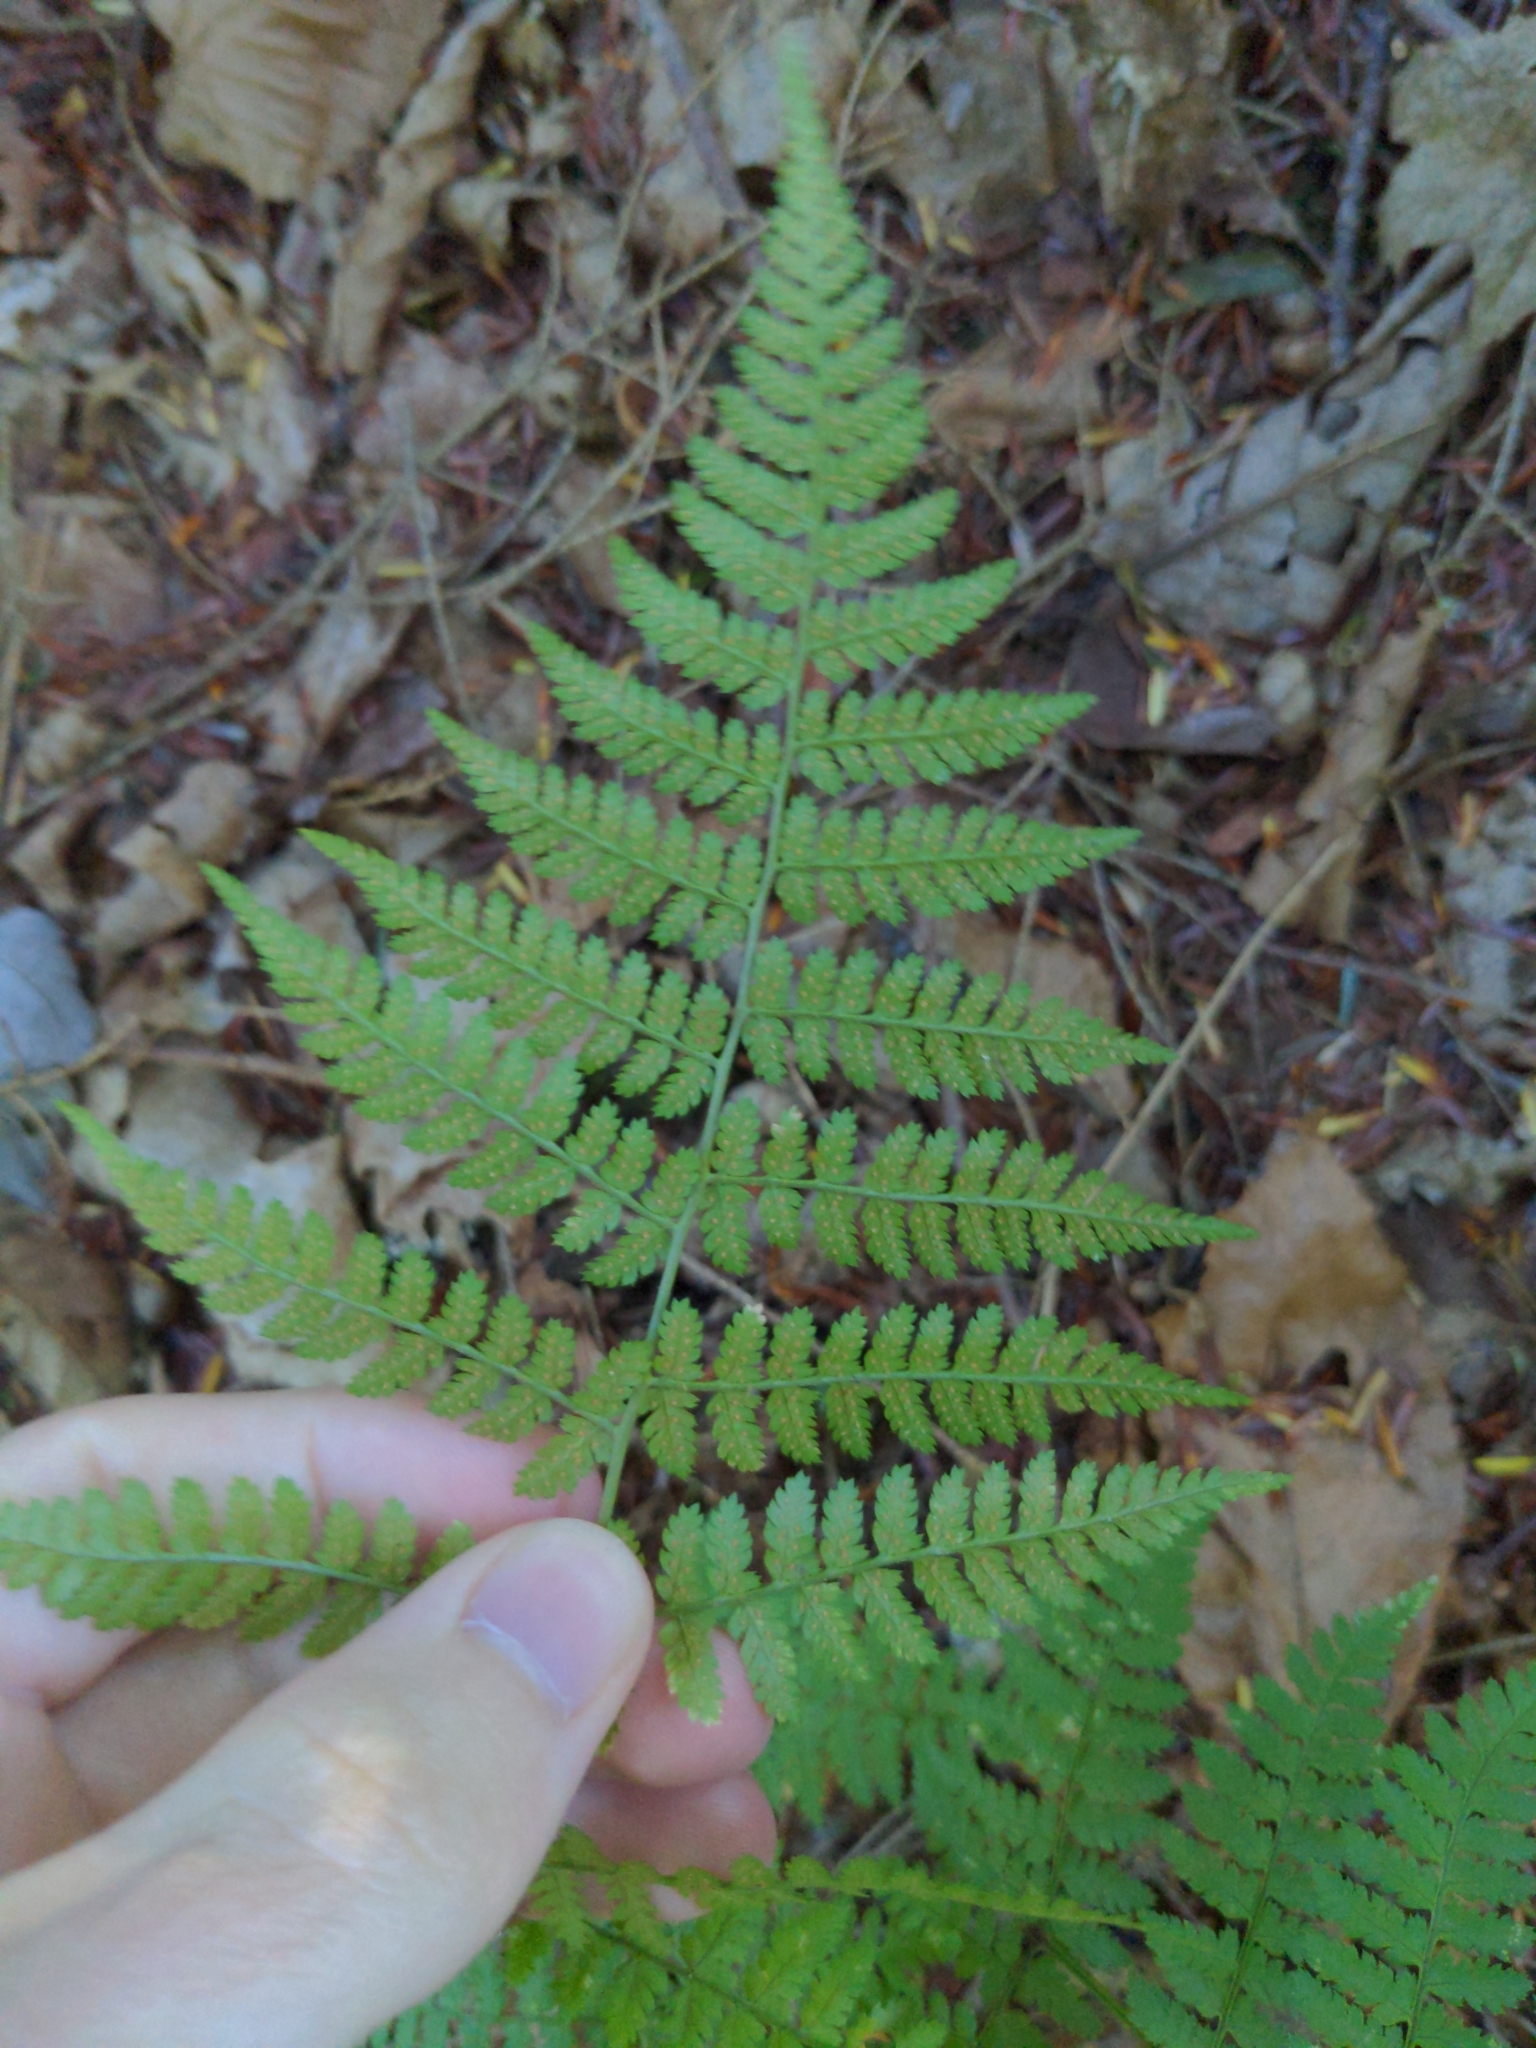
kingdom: Plantae
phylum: Tracheophyta
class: Polypodiopsida
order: Polypodiales
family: Dryopteridaceae
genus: Dryopteris
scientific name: Dryopteris intermedia
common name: Evergreen wood fern
